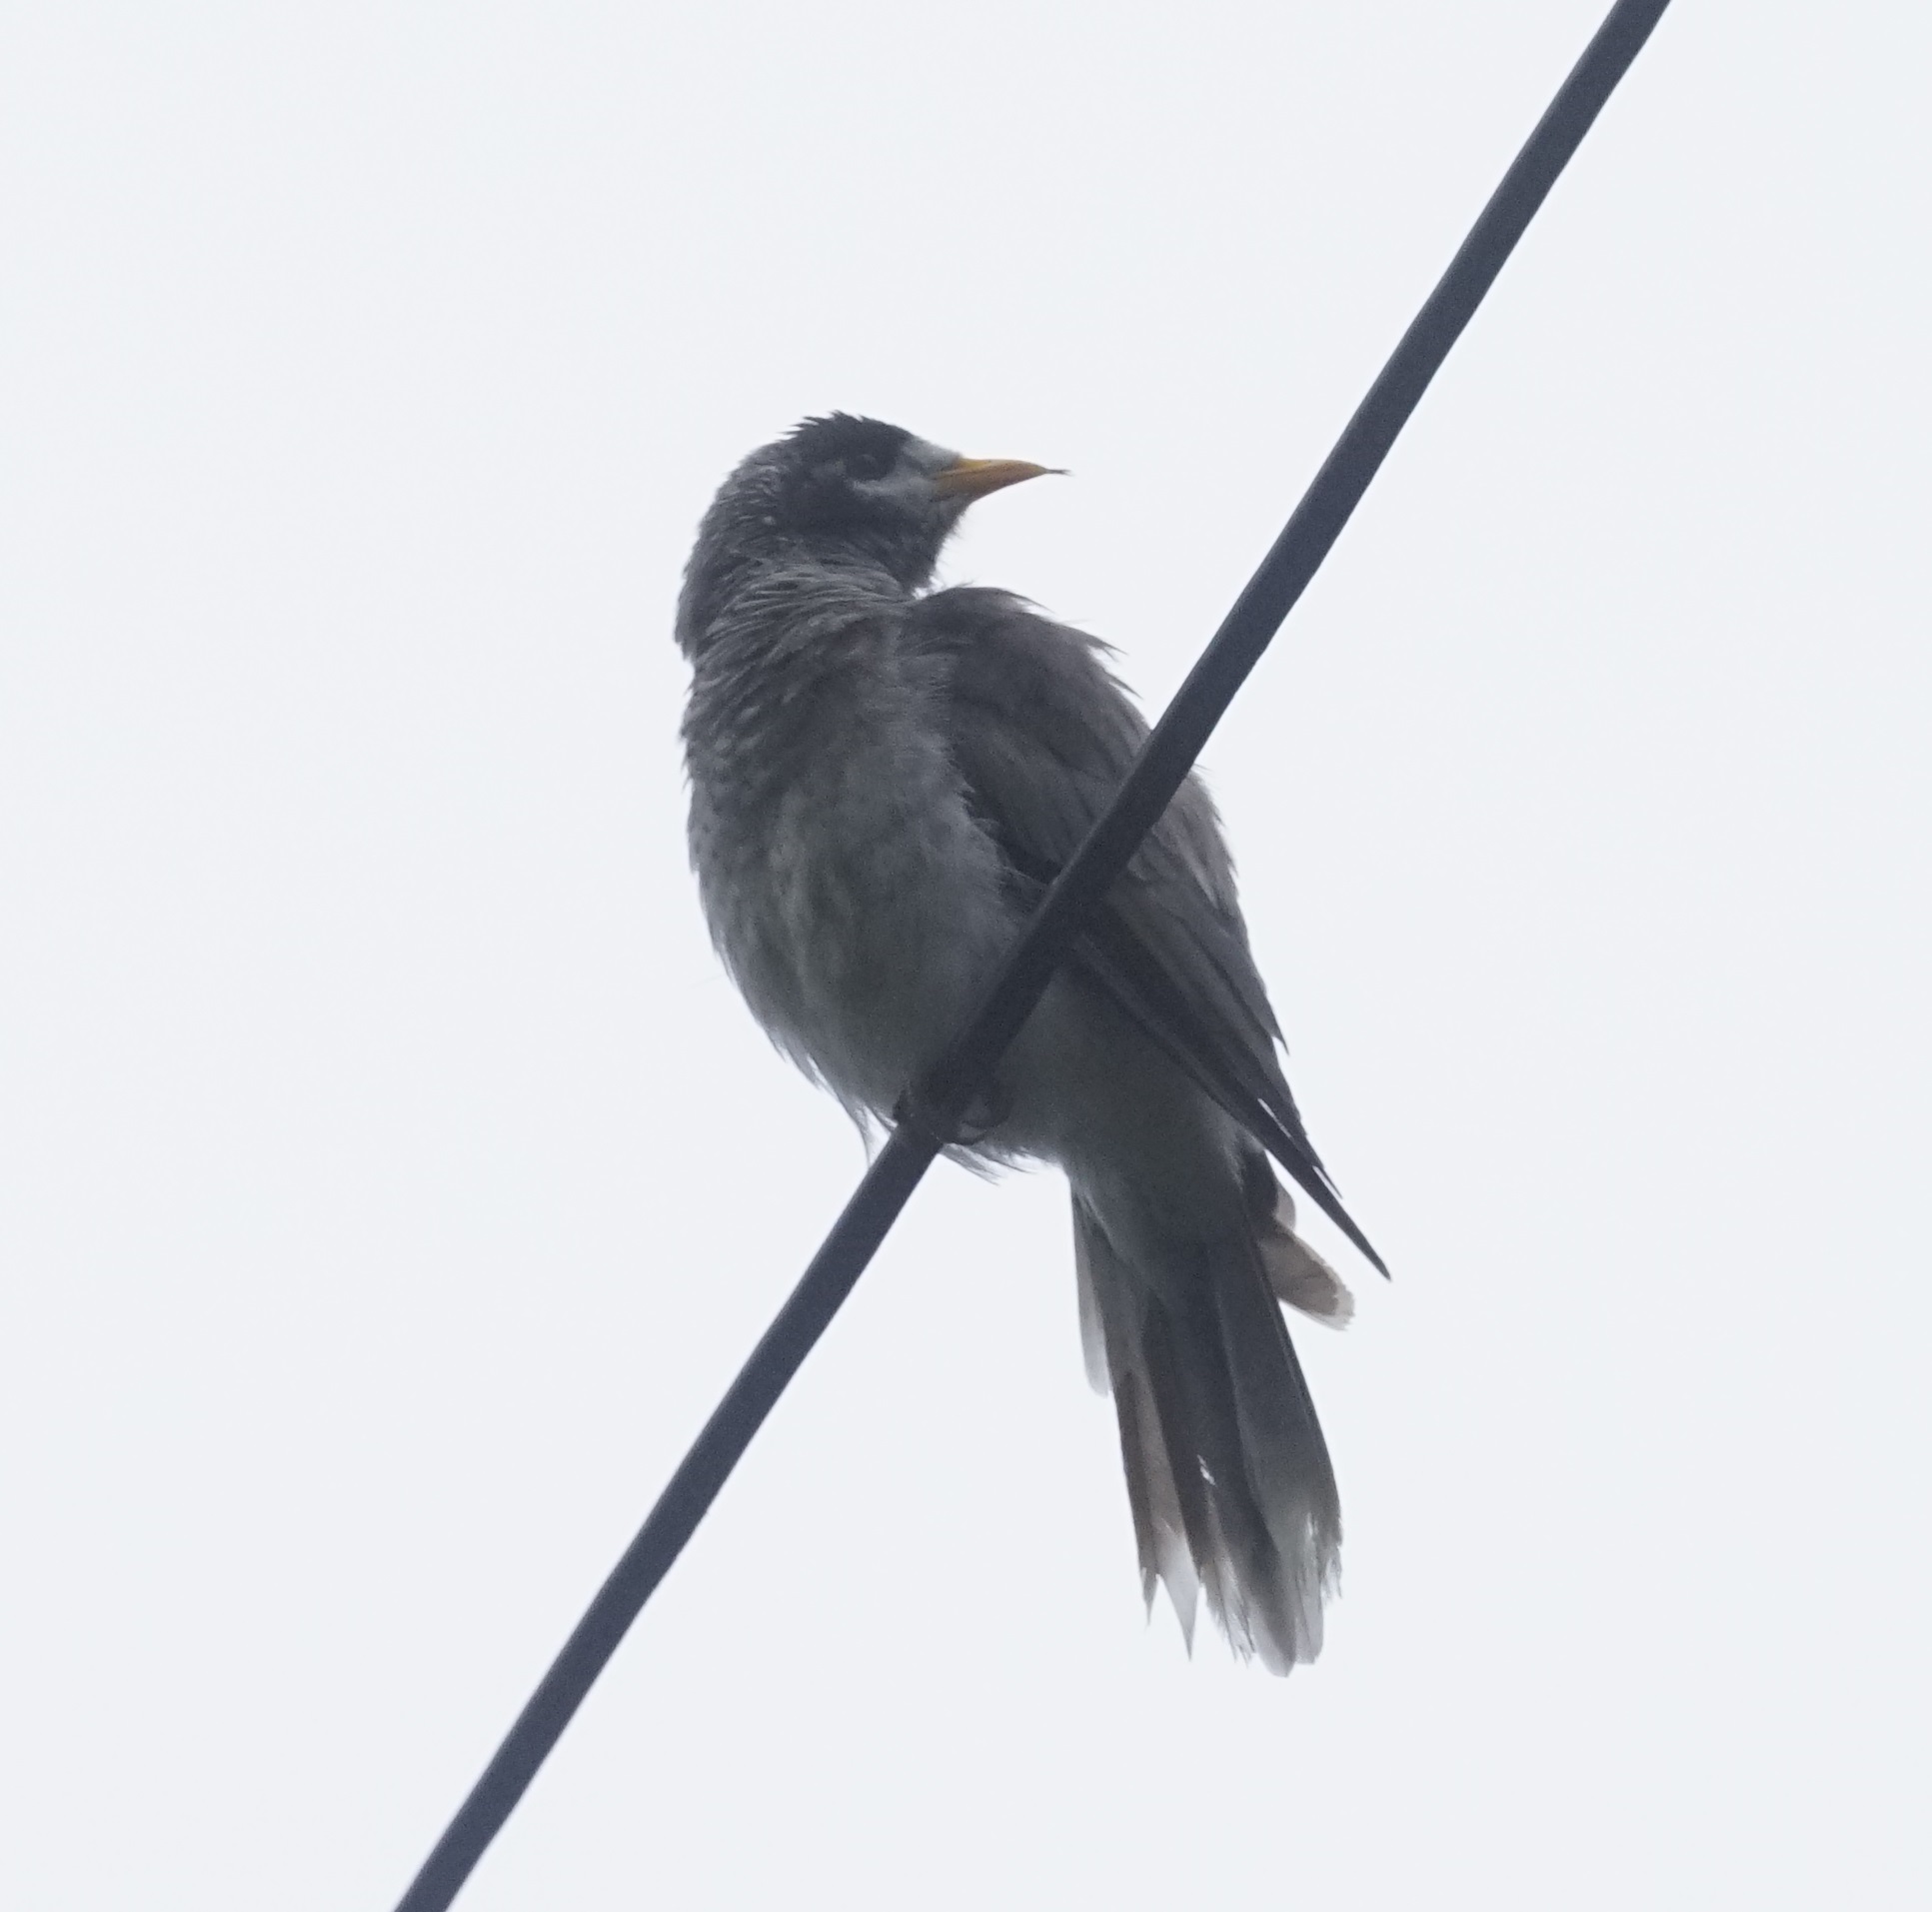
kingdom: Animalia
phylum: Chordata
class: Aves
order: Passeriformes
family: Meliphagidae
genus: Manorina
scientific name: Manorina melanocephala
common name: Noisy miner
